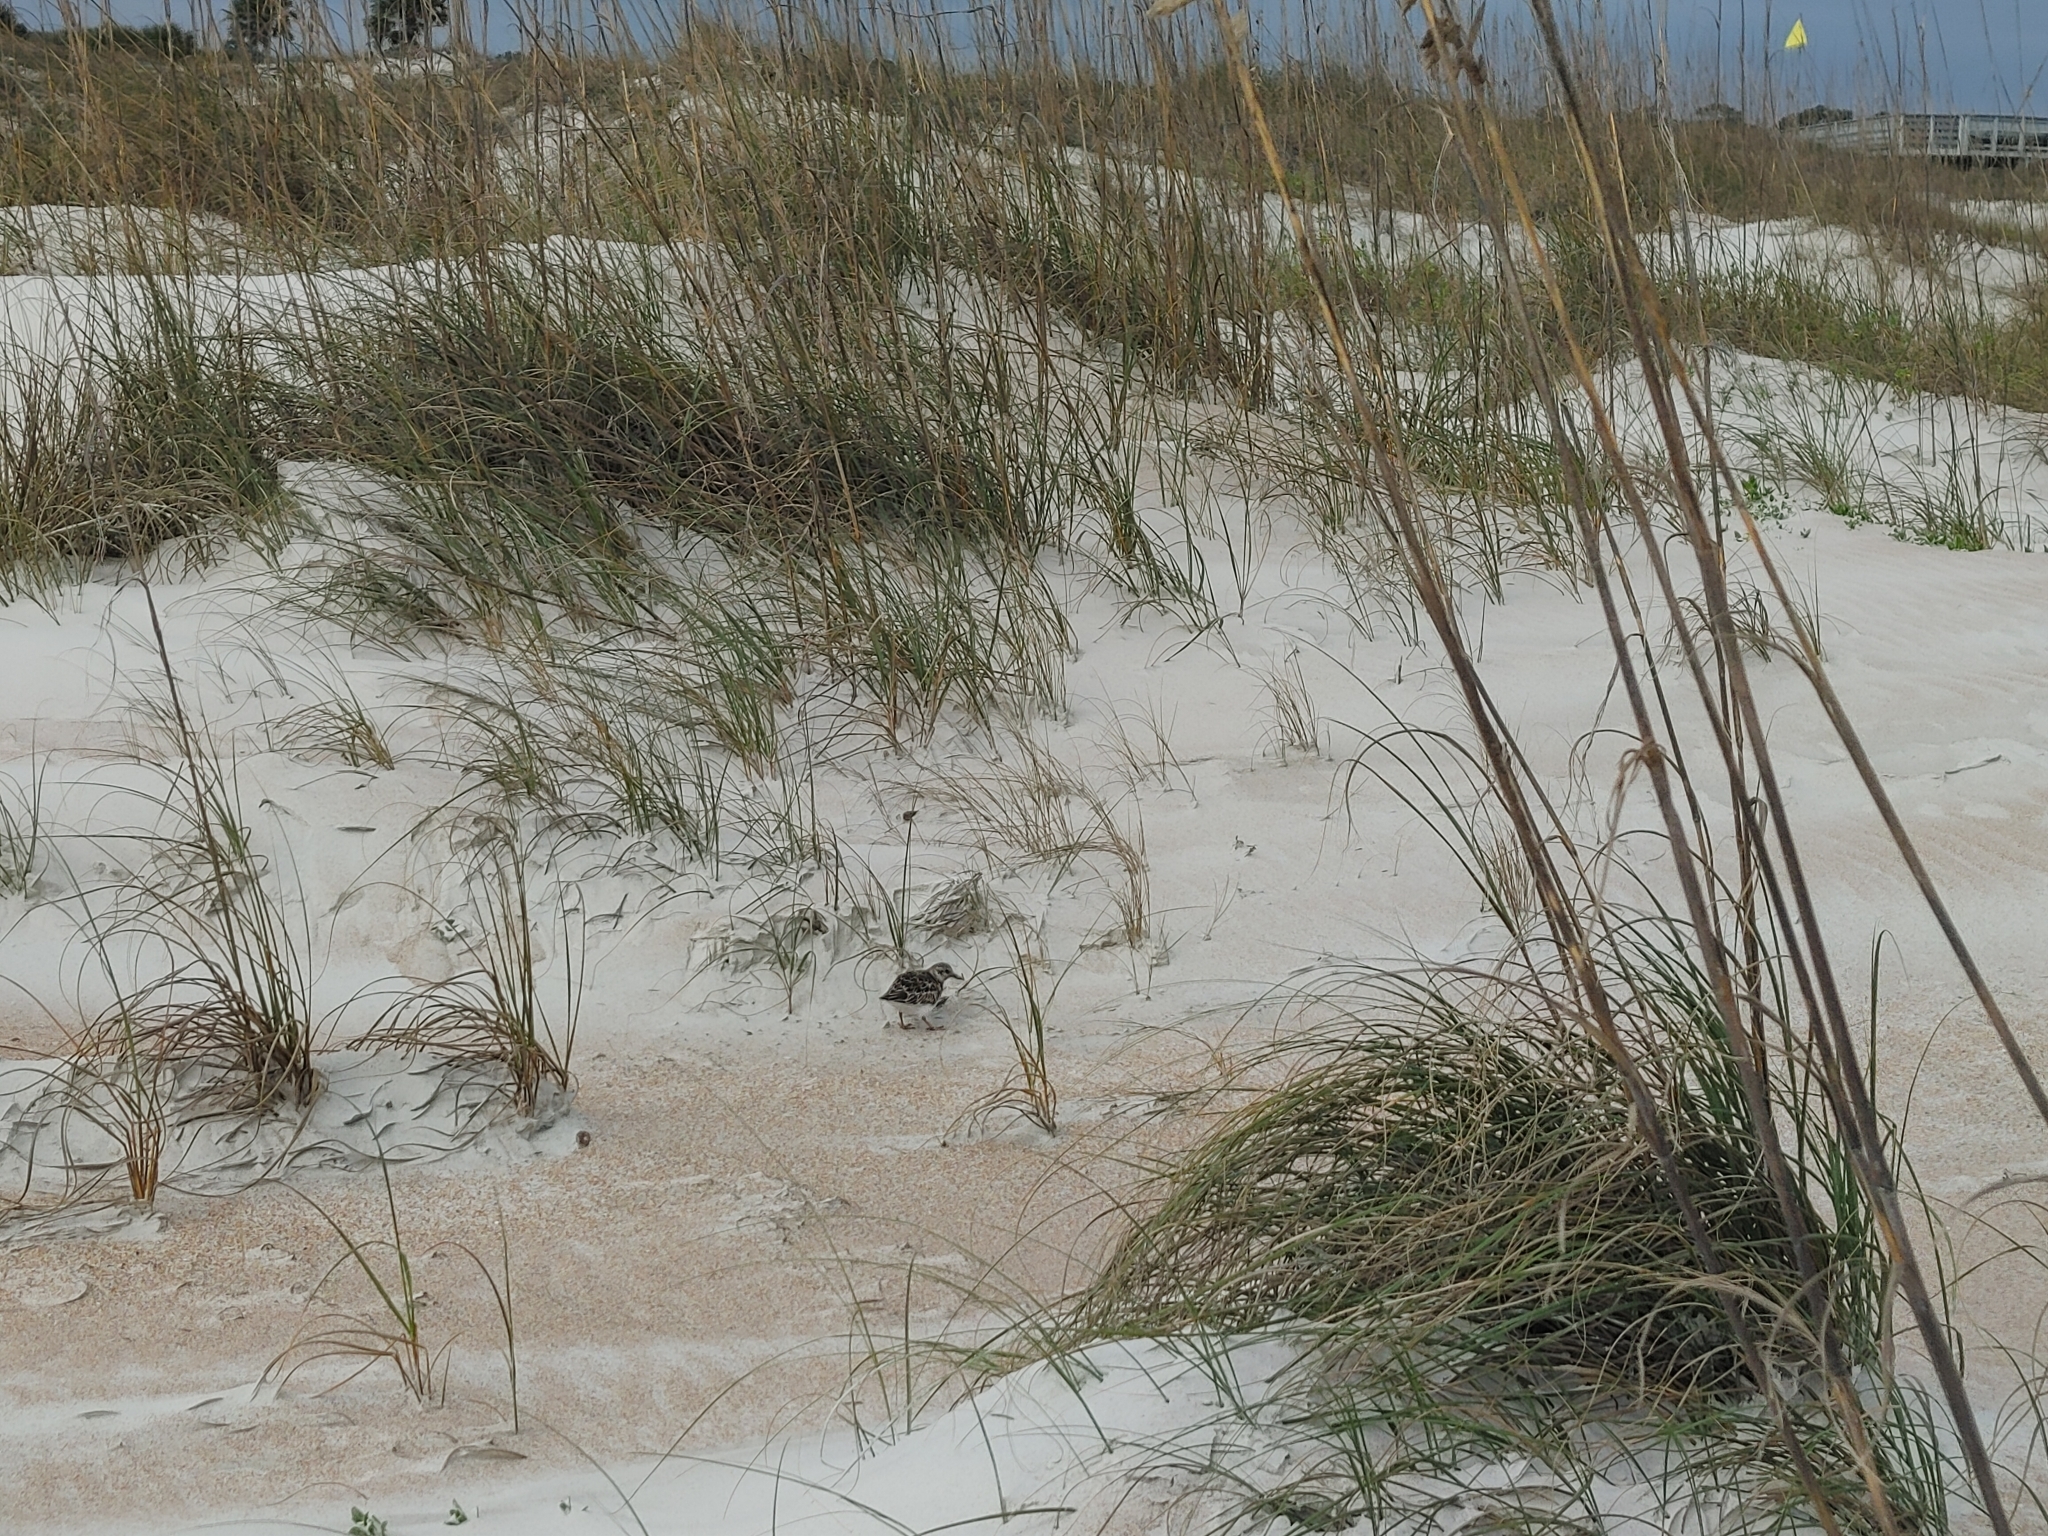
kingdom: Animalia
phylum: Chordata
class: Aves
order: Charadriiformes
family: Scolopacidae
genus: Arenaria
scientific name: Arenaria interpres
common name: Ruddy turnstone
